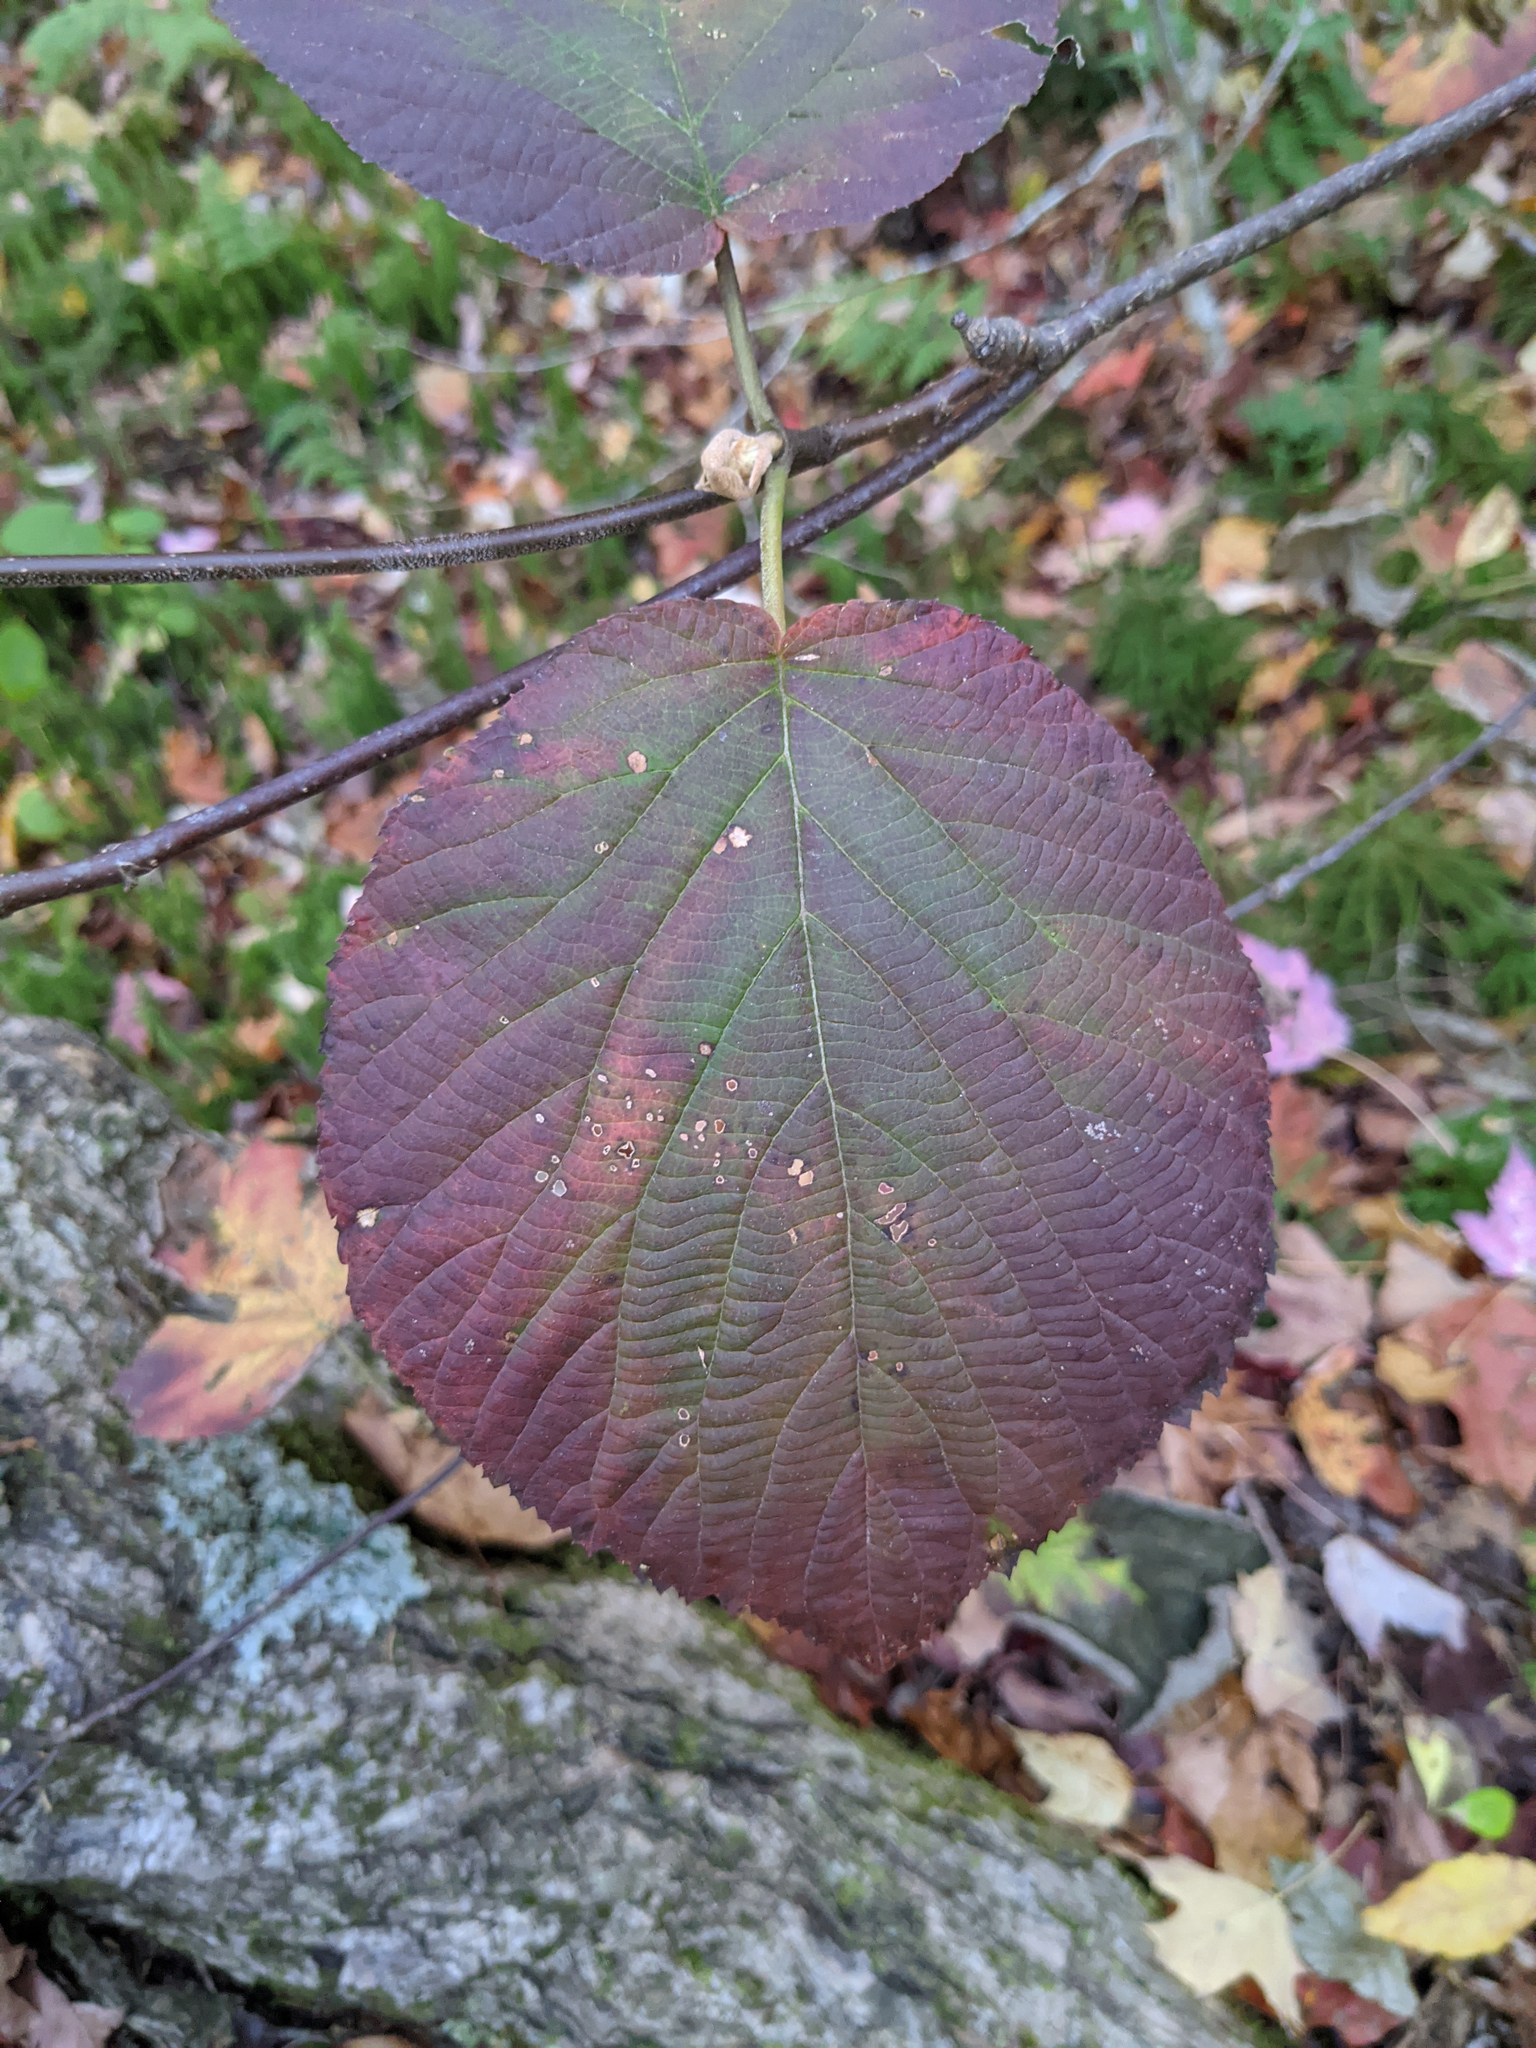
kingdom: Plantae
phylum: Tracheophyta
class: Magnoliopsida
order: Dipsacales
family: Viburnaceae
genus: Viburnum
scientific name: Viburnum lantanoides
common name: Hobblebush
